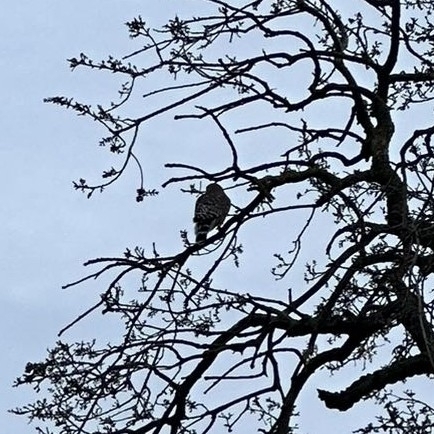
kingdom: Animalia
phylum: Chordata
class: Aves
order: Accipitriformes
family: Accipitridae
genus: Buteo
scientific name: Buteo lineatus
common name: Red-shouldered hawk
